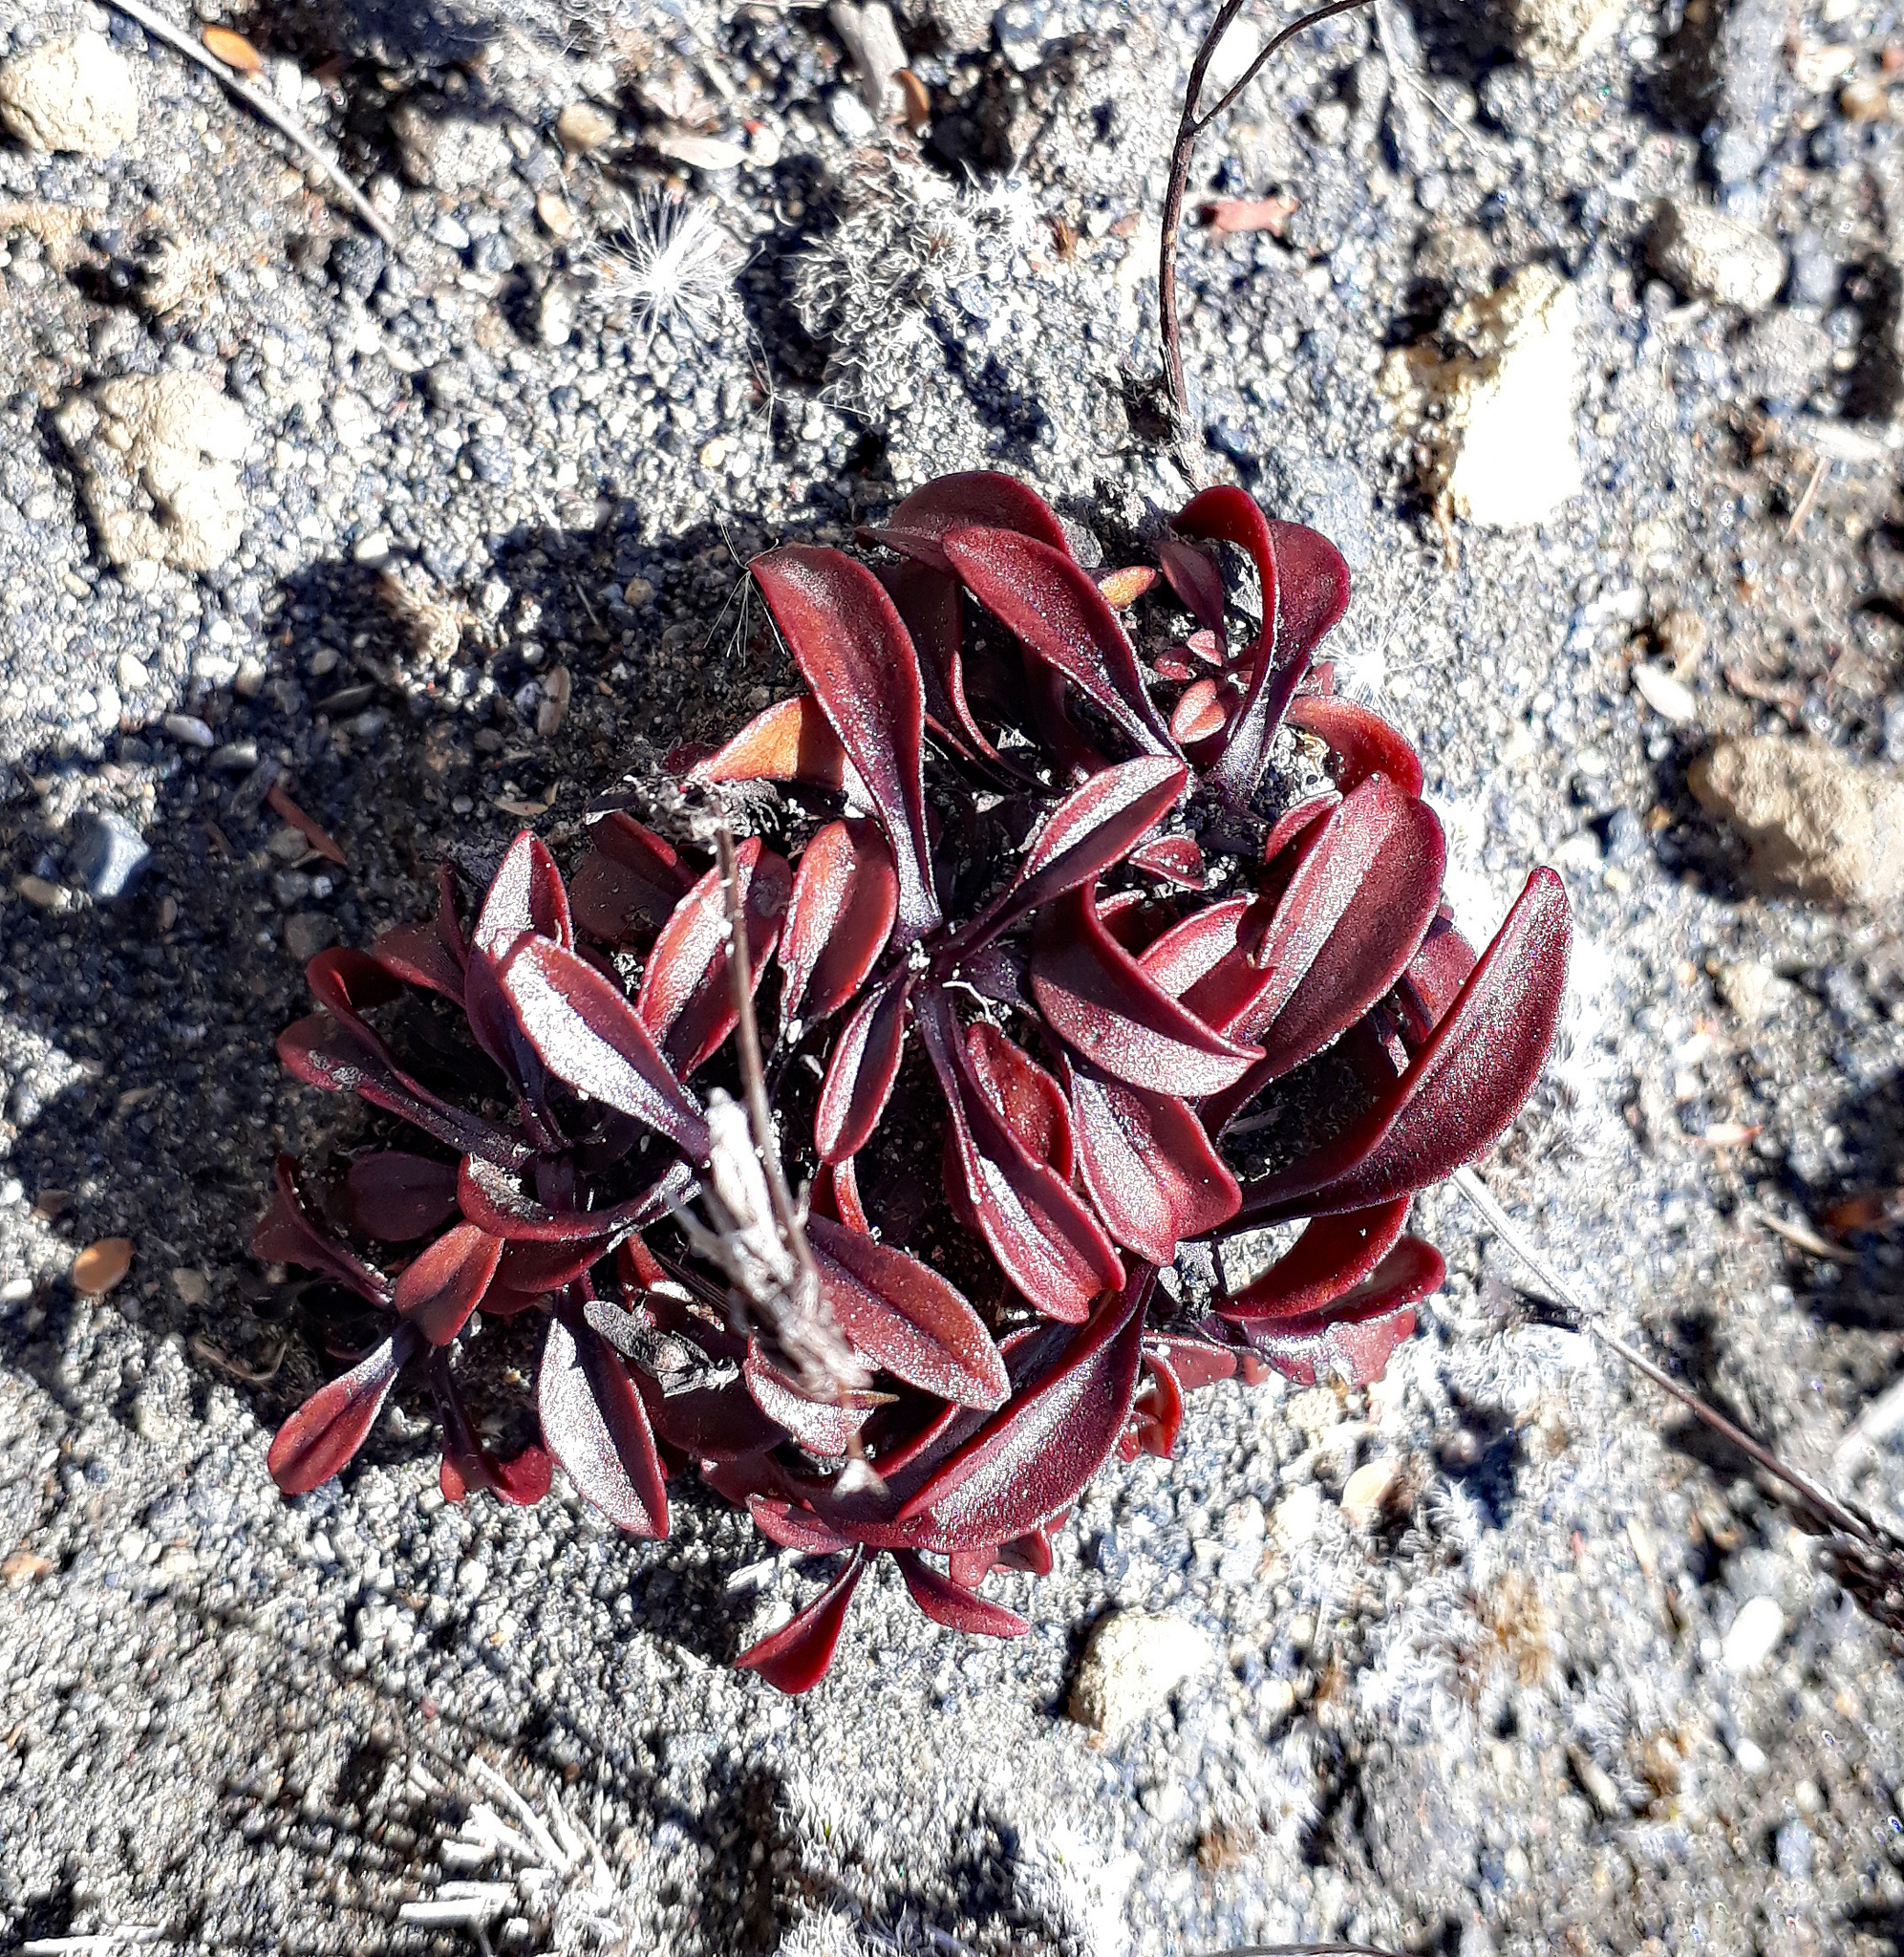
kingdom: Plantae
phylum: Tracheophyta
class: Magnoliopsida
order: Gentianales
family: Gentianaceae
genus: Gentianella
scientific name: Gentianella bellidifolia
